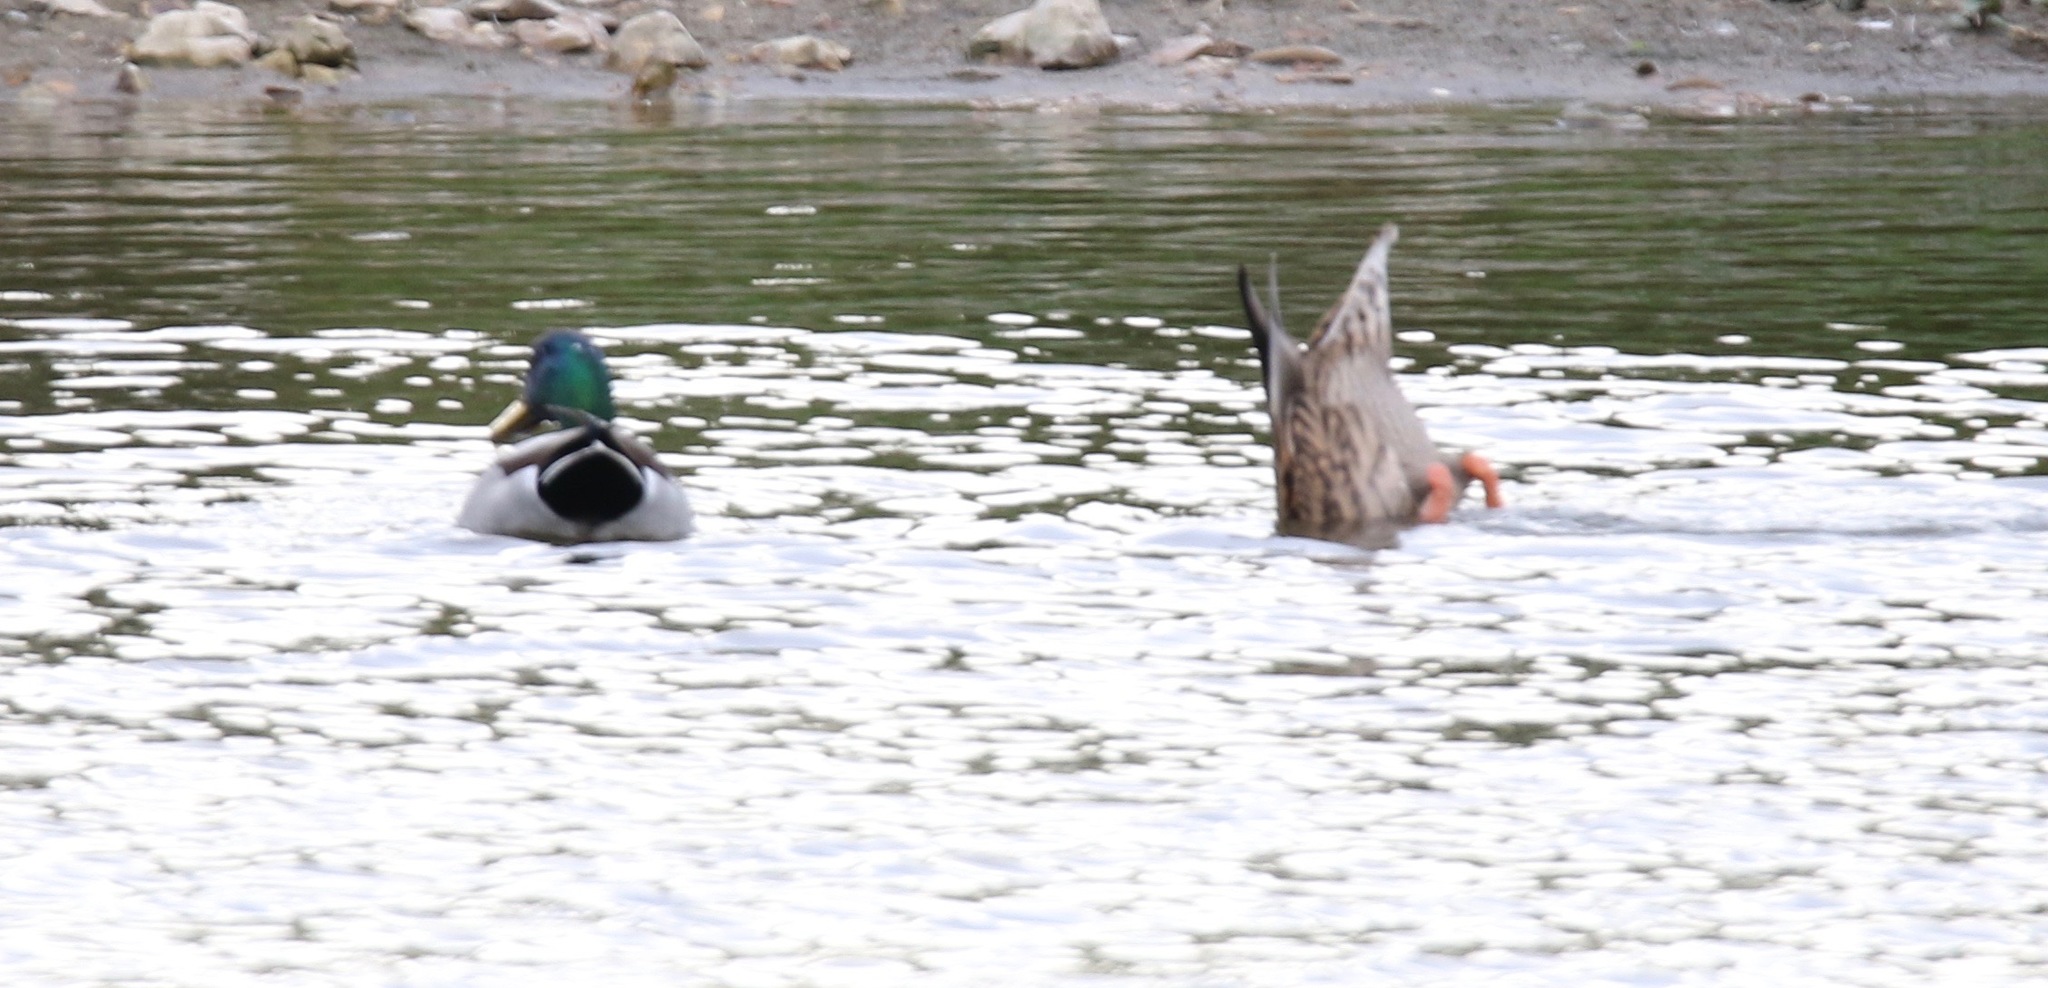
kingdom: Animalia
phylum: Chordata
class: Aves
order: Anseriformes
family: Anatidae
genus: Anas
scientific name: Anas platyrhynchos
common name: Mallard
